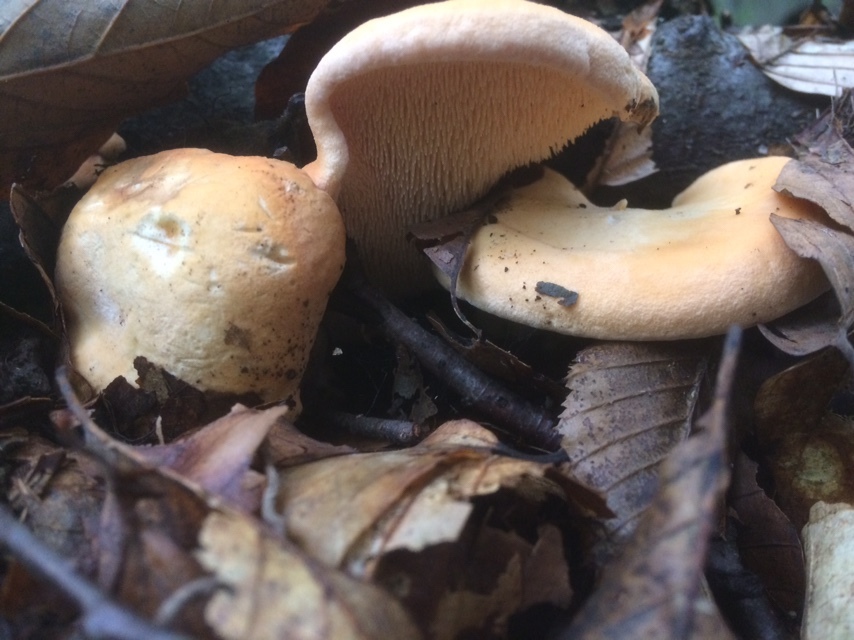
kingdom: Fungi
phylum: Basidiomycota
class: Agaricomycetes
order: Cantharellales
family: Hydnaceae
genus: Hydnum
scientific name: Hydnum repandum
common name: Wood hedgehog
